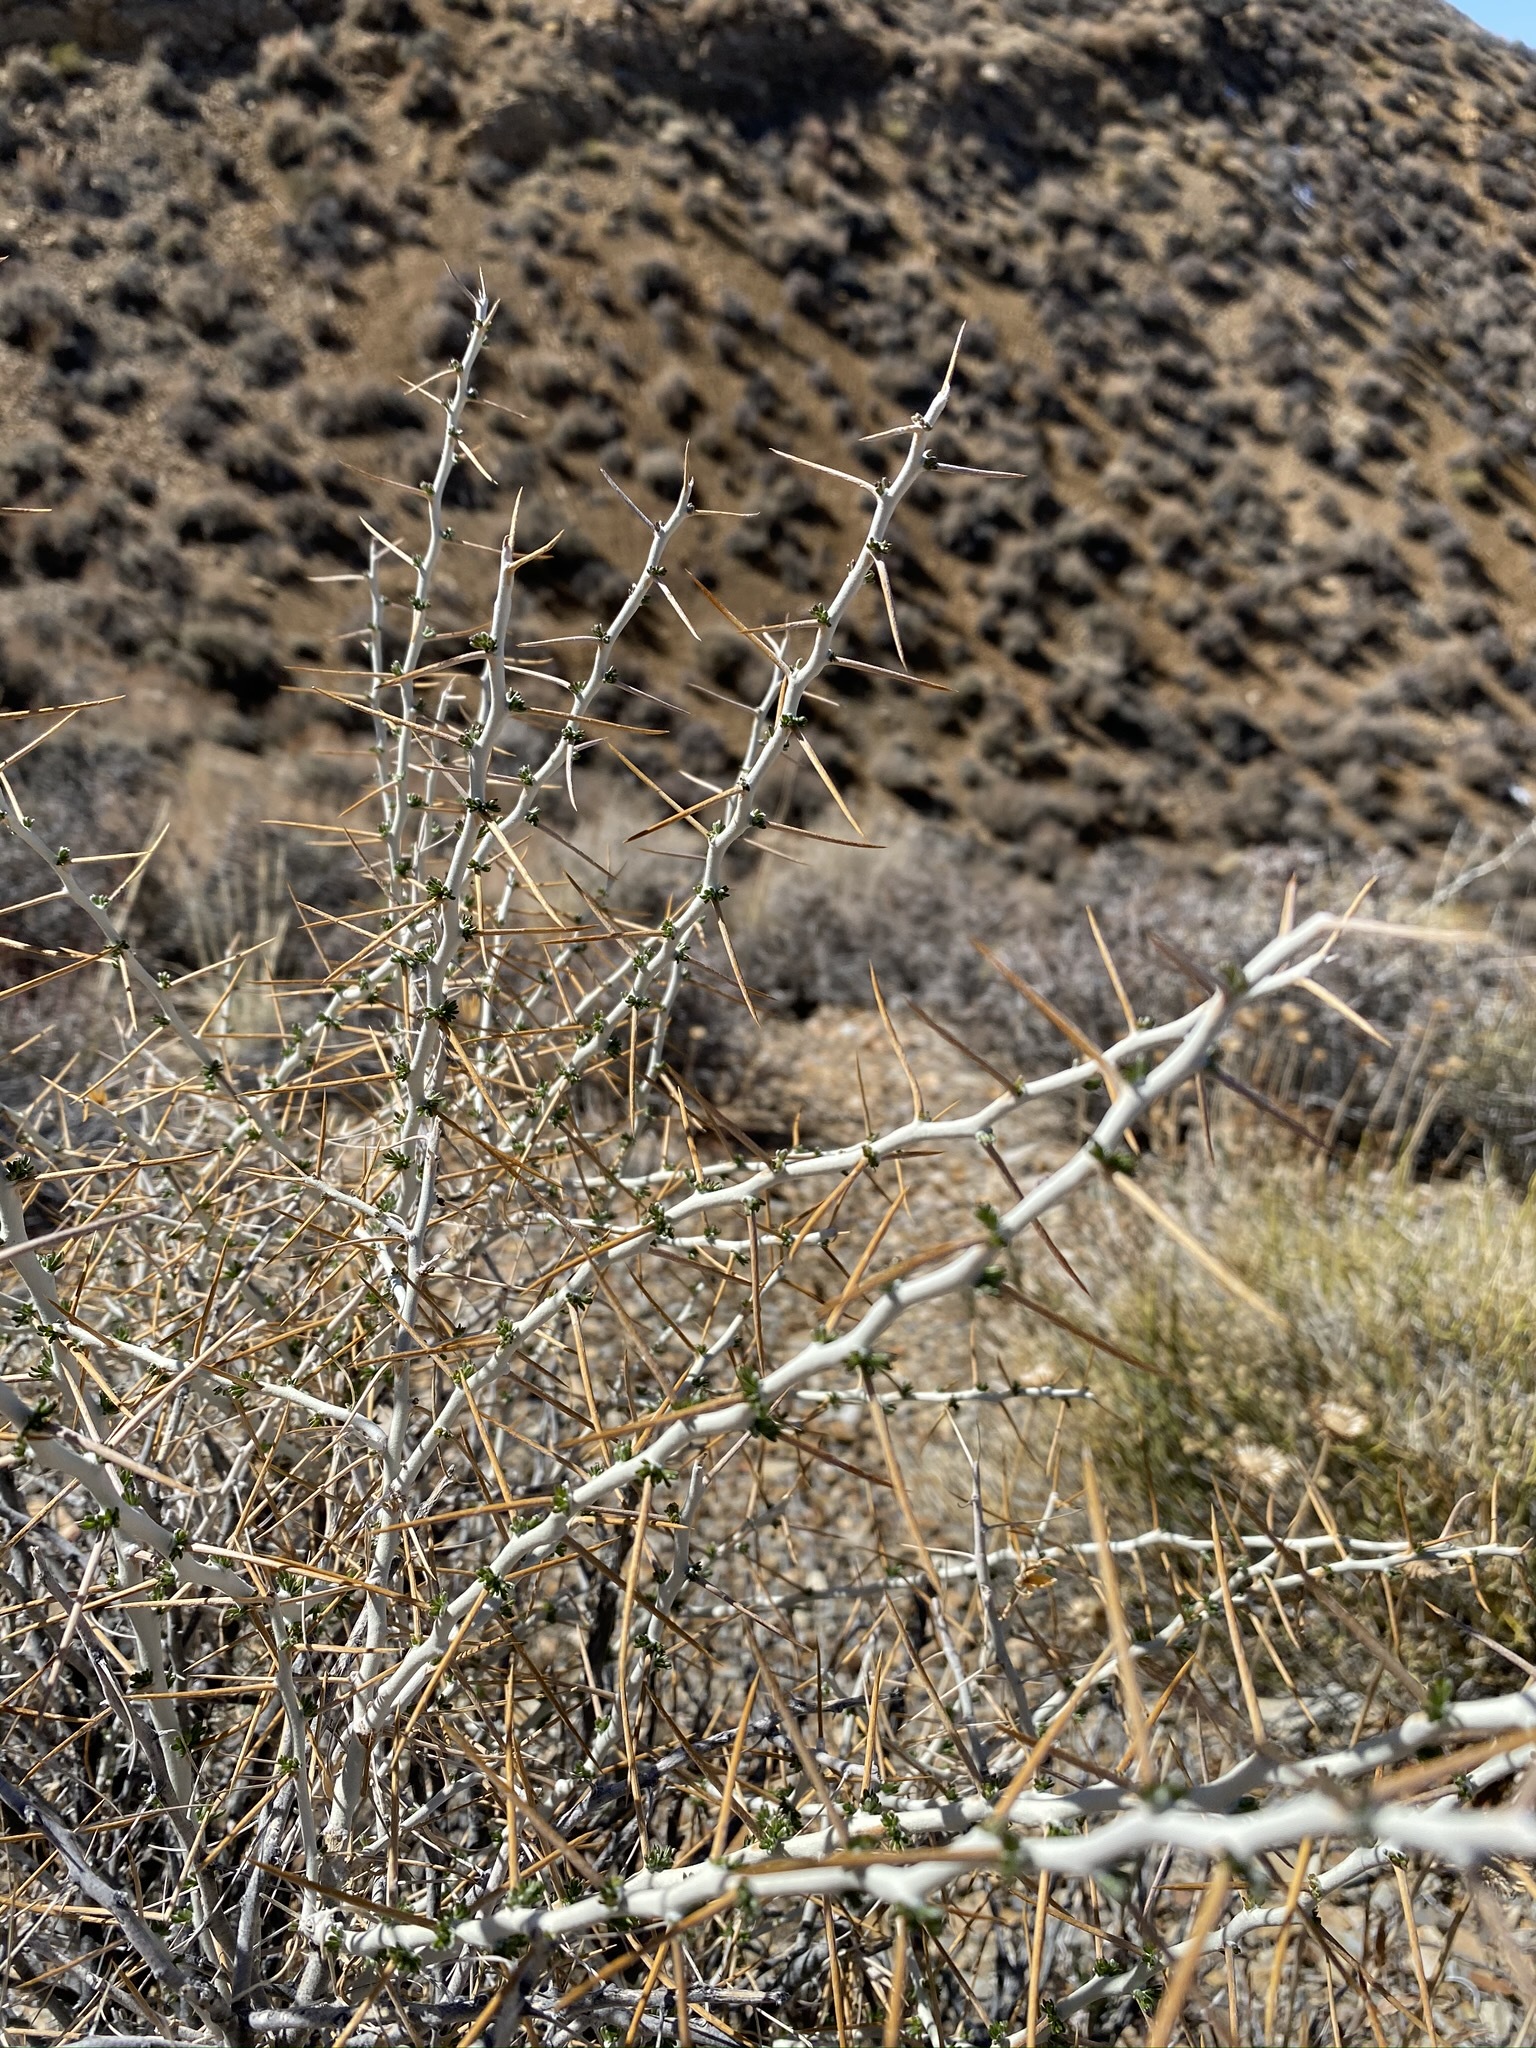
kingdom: Plantae
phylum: Tracheophyta
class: Magnoliopsida
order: Asterales
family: Asteraceae
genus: Tetradymia
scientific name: Tetradymia axillaris
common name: Long-spine horsebrush
